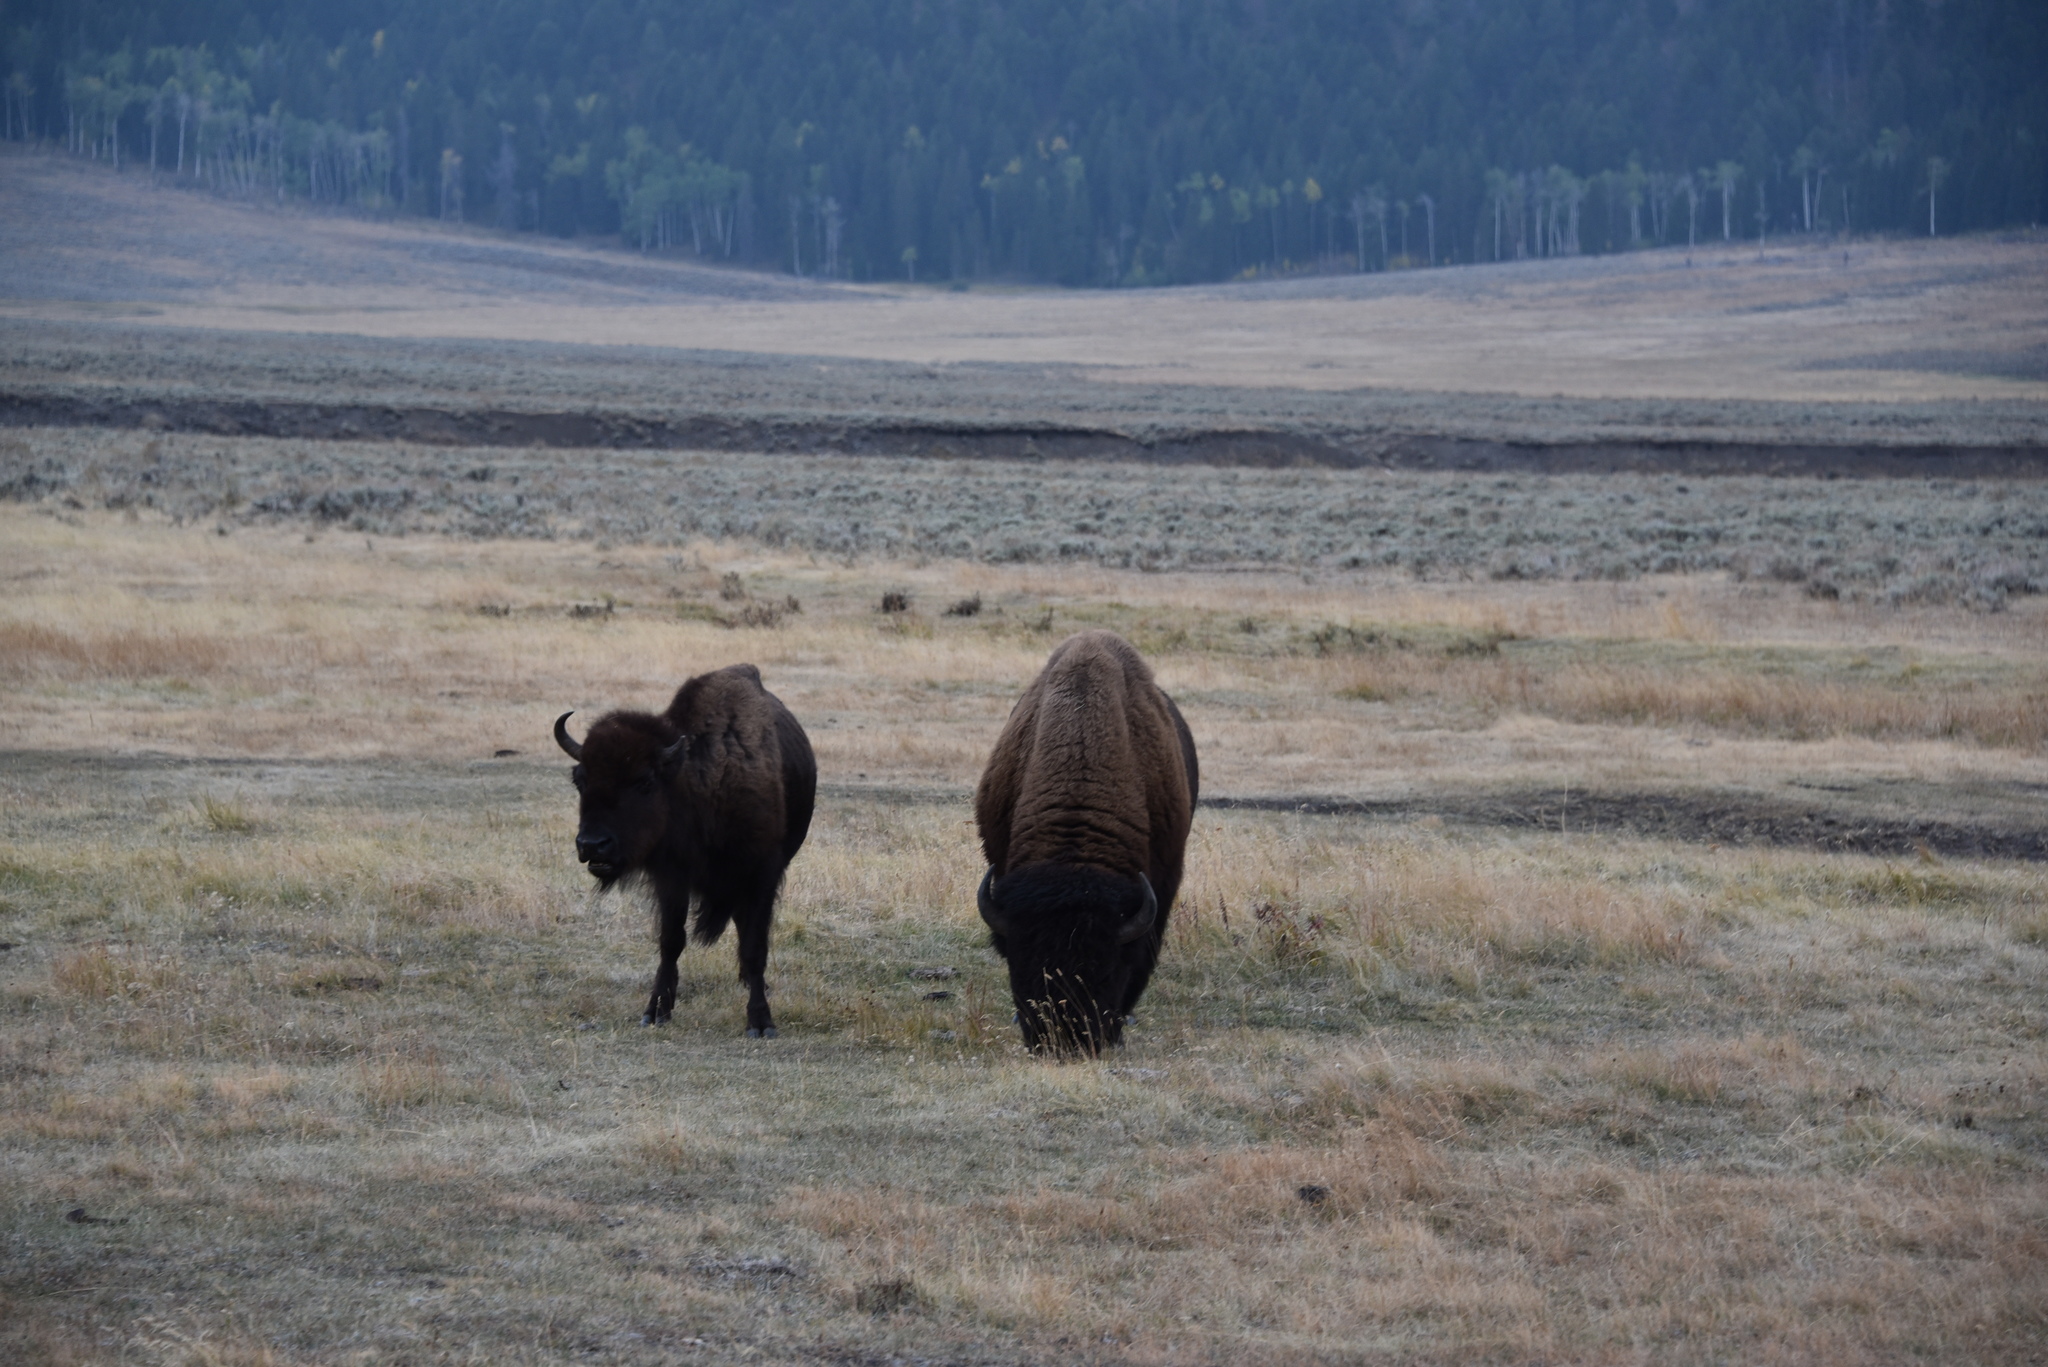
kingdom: Animalia
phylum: Chordata
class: Mammalia
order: Artiodactyla
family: Bovidae
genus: Bison
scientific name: Bison bison
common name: American bison
